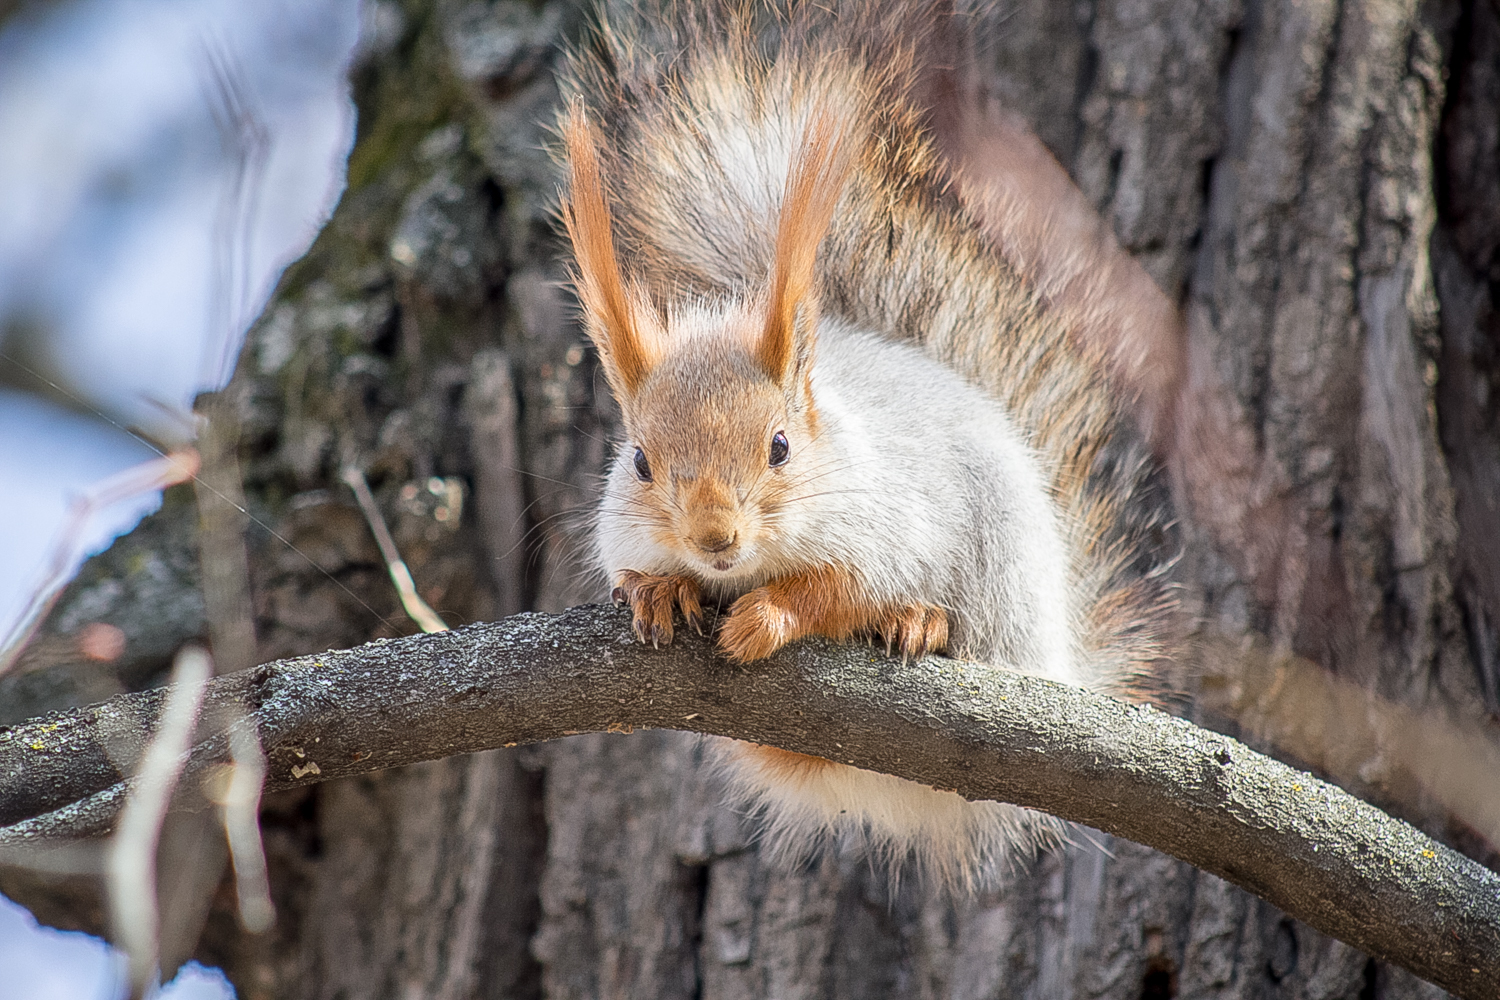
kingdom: Animalia
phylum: Chordata
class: Mammalia
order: Rodentia
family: Sciuridae
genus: Sciurus
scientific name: Sciurus vulgaris
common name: Eurasian red squirrel
